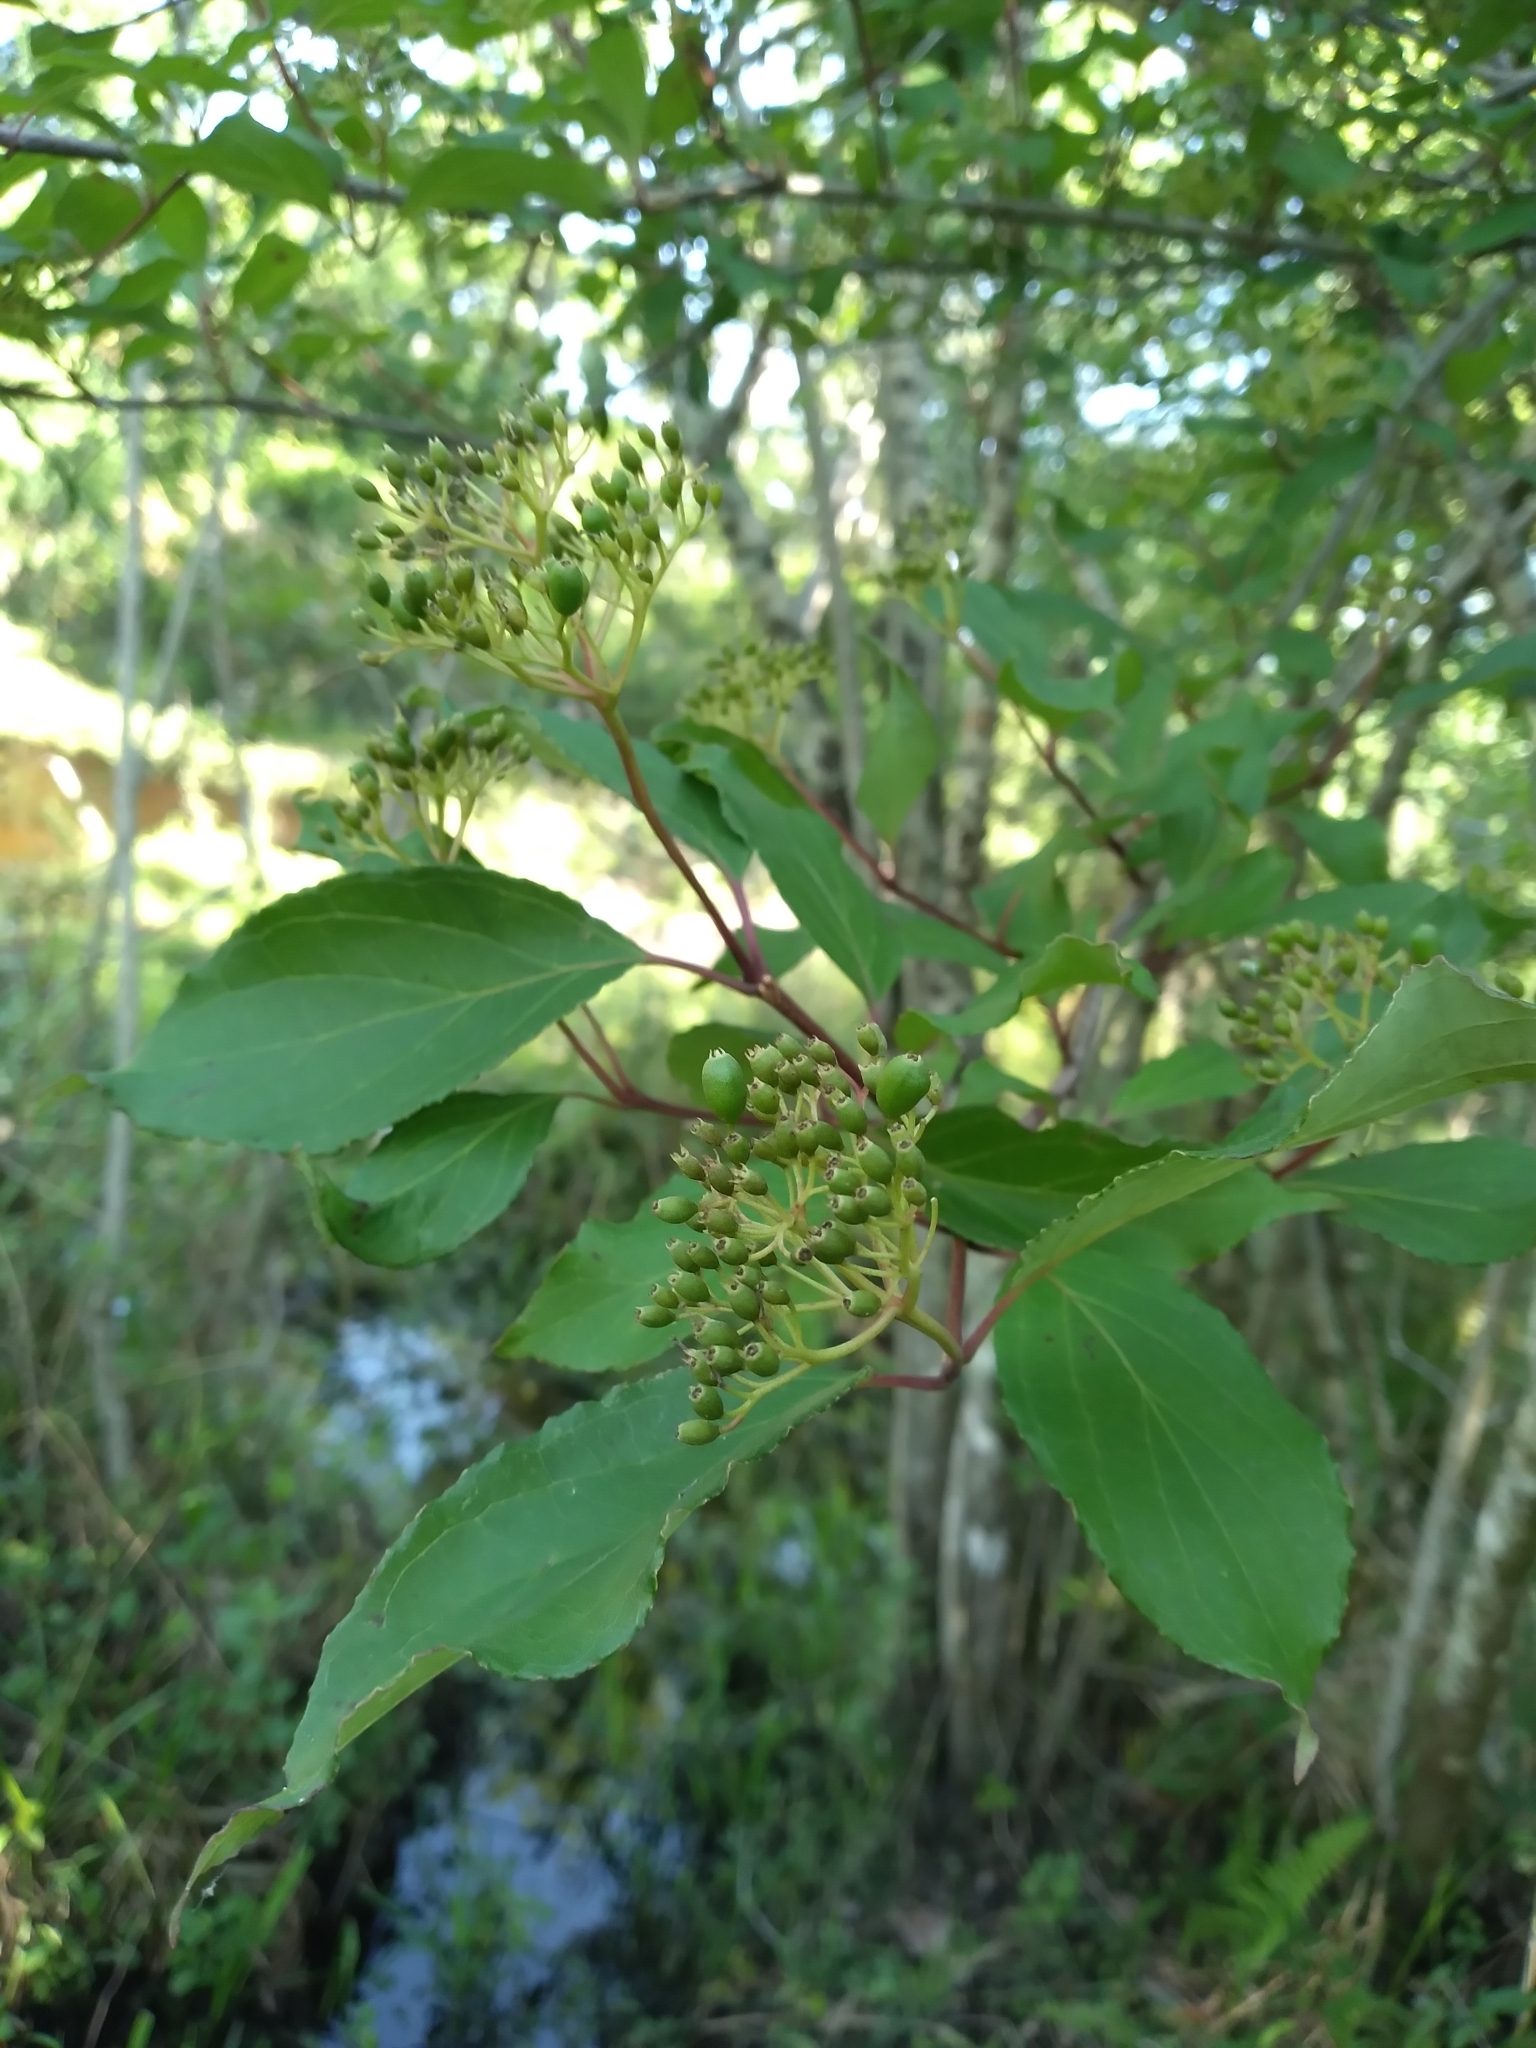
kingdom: Plantae
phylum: Tracheophyta
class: Magnoliopsida
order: Cornales
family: Cornaceae
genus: Cornus
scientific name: Cornus foemina
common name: Swamp dogwood
